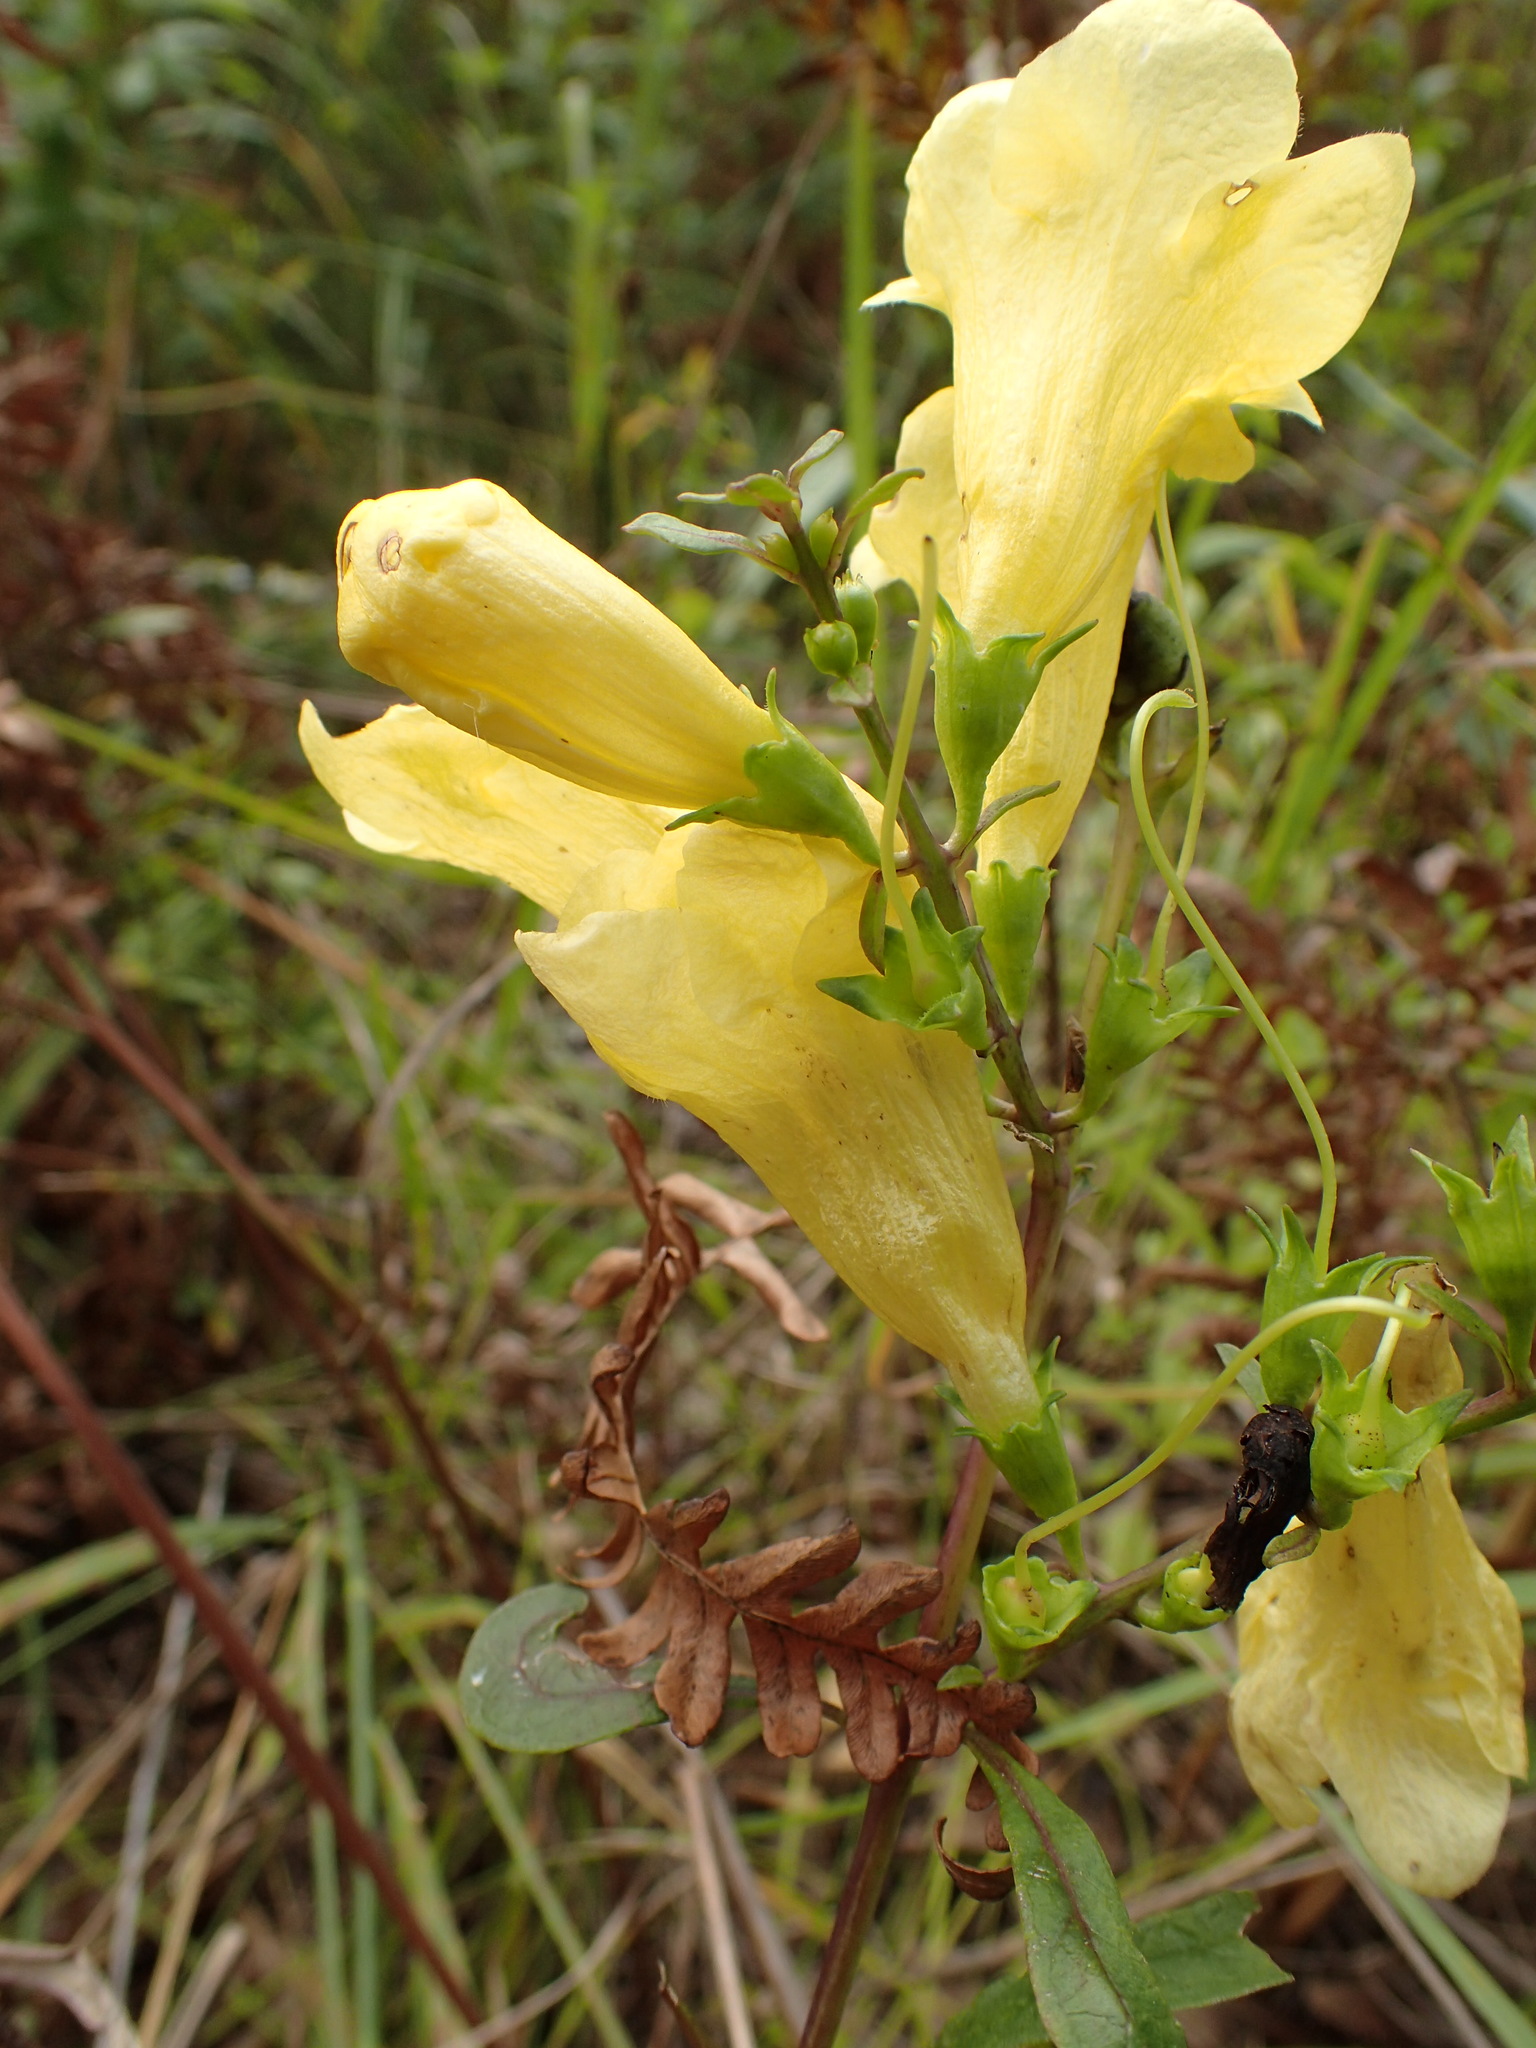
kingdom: Plantae
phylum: Tracheophyta
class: Magnoliopsida
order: Lamiales
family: Orobanchaceae
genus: Aureolaria
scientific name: Aureolaria flava
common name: Smooth false foxglove
